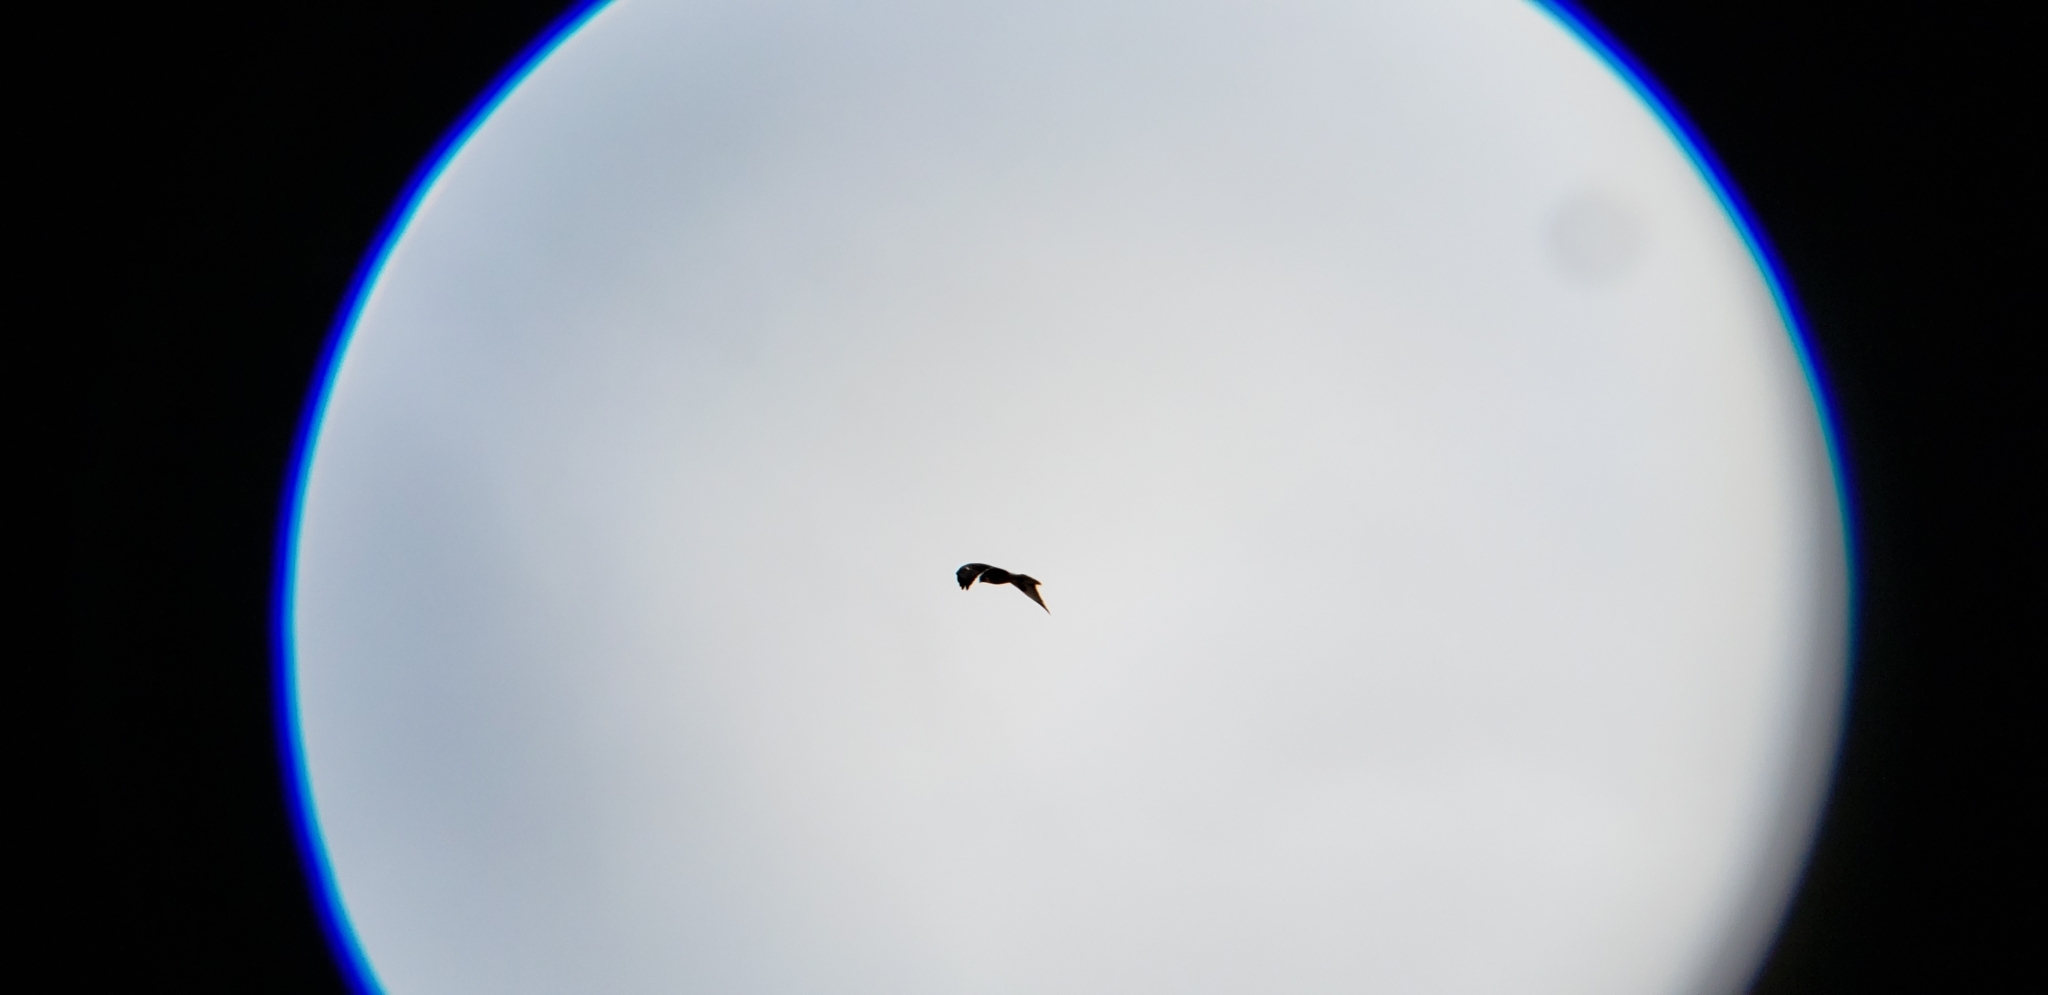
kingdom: Animalia
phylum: Chordata
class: Aves
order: Accipitriformes
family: Accipitridae
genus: Buteo
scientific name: Buteo jamaicensis
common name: Red-tailed hawk
